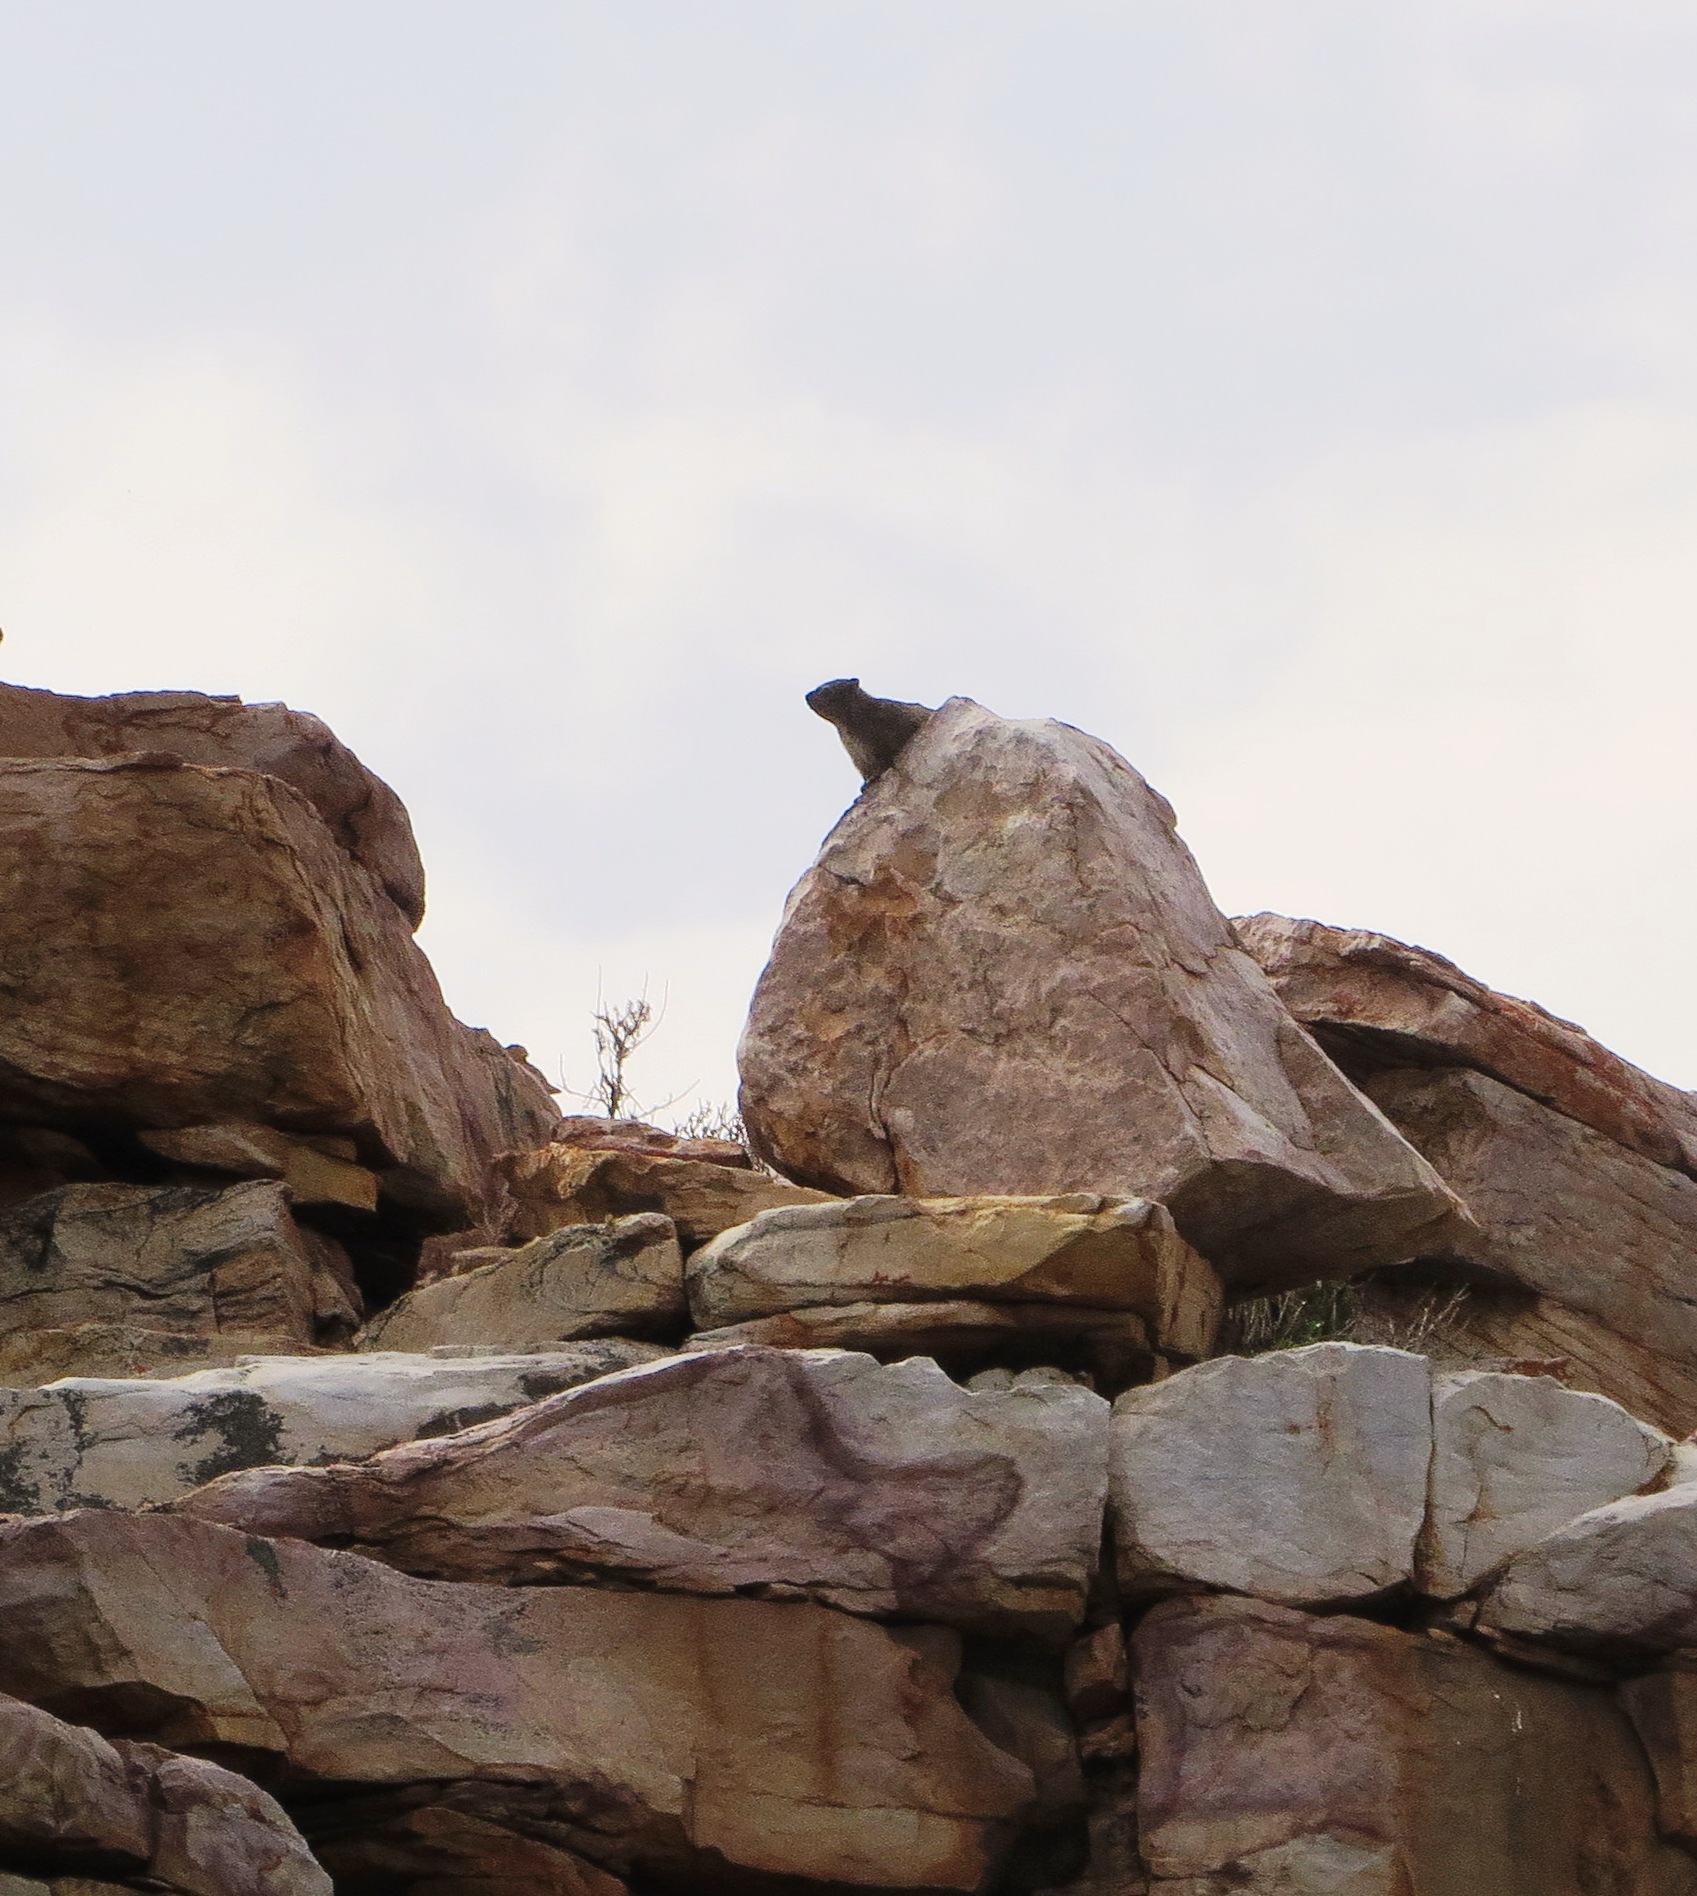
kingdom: Animalia
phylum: Chordata
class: Mammalia
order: Hyracoidea
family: Procaviidae
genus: Procavia
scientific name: Procavia capensis
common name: Rock hyrax
